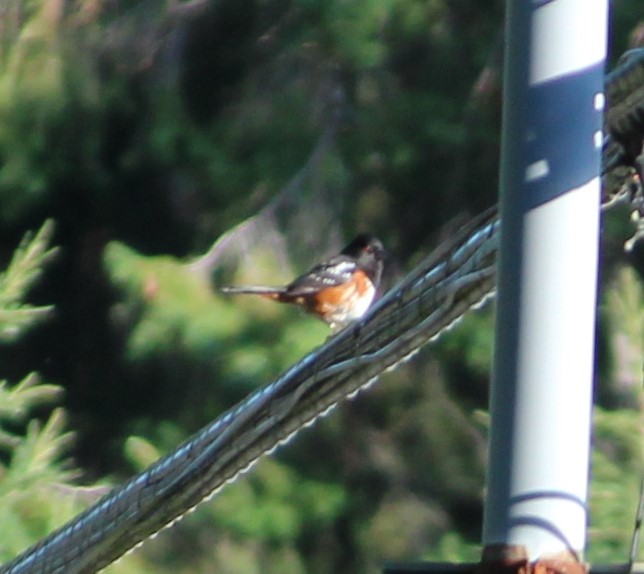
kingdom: Animalia
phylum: Chordata
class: Aves
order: Passeriformes
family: Passerellidae
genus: Pipilo
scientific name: Pipilo maculatus
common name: Spotted towhee
